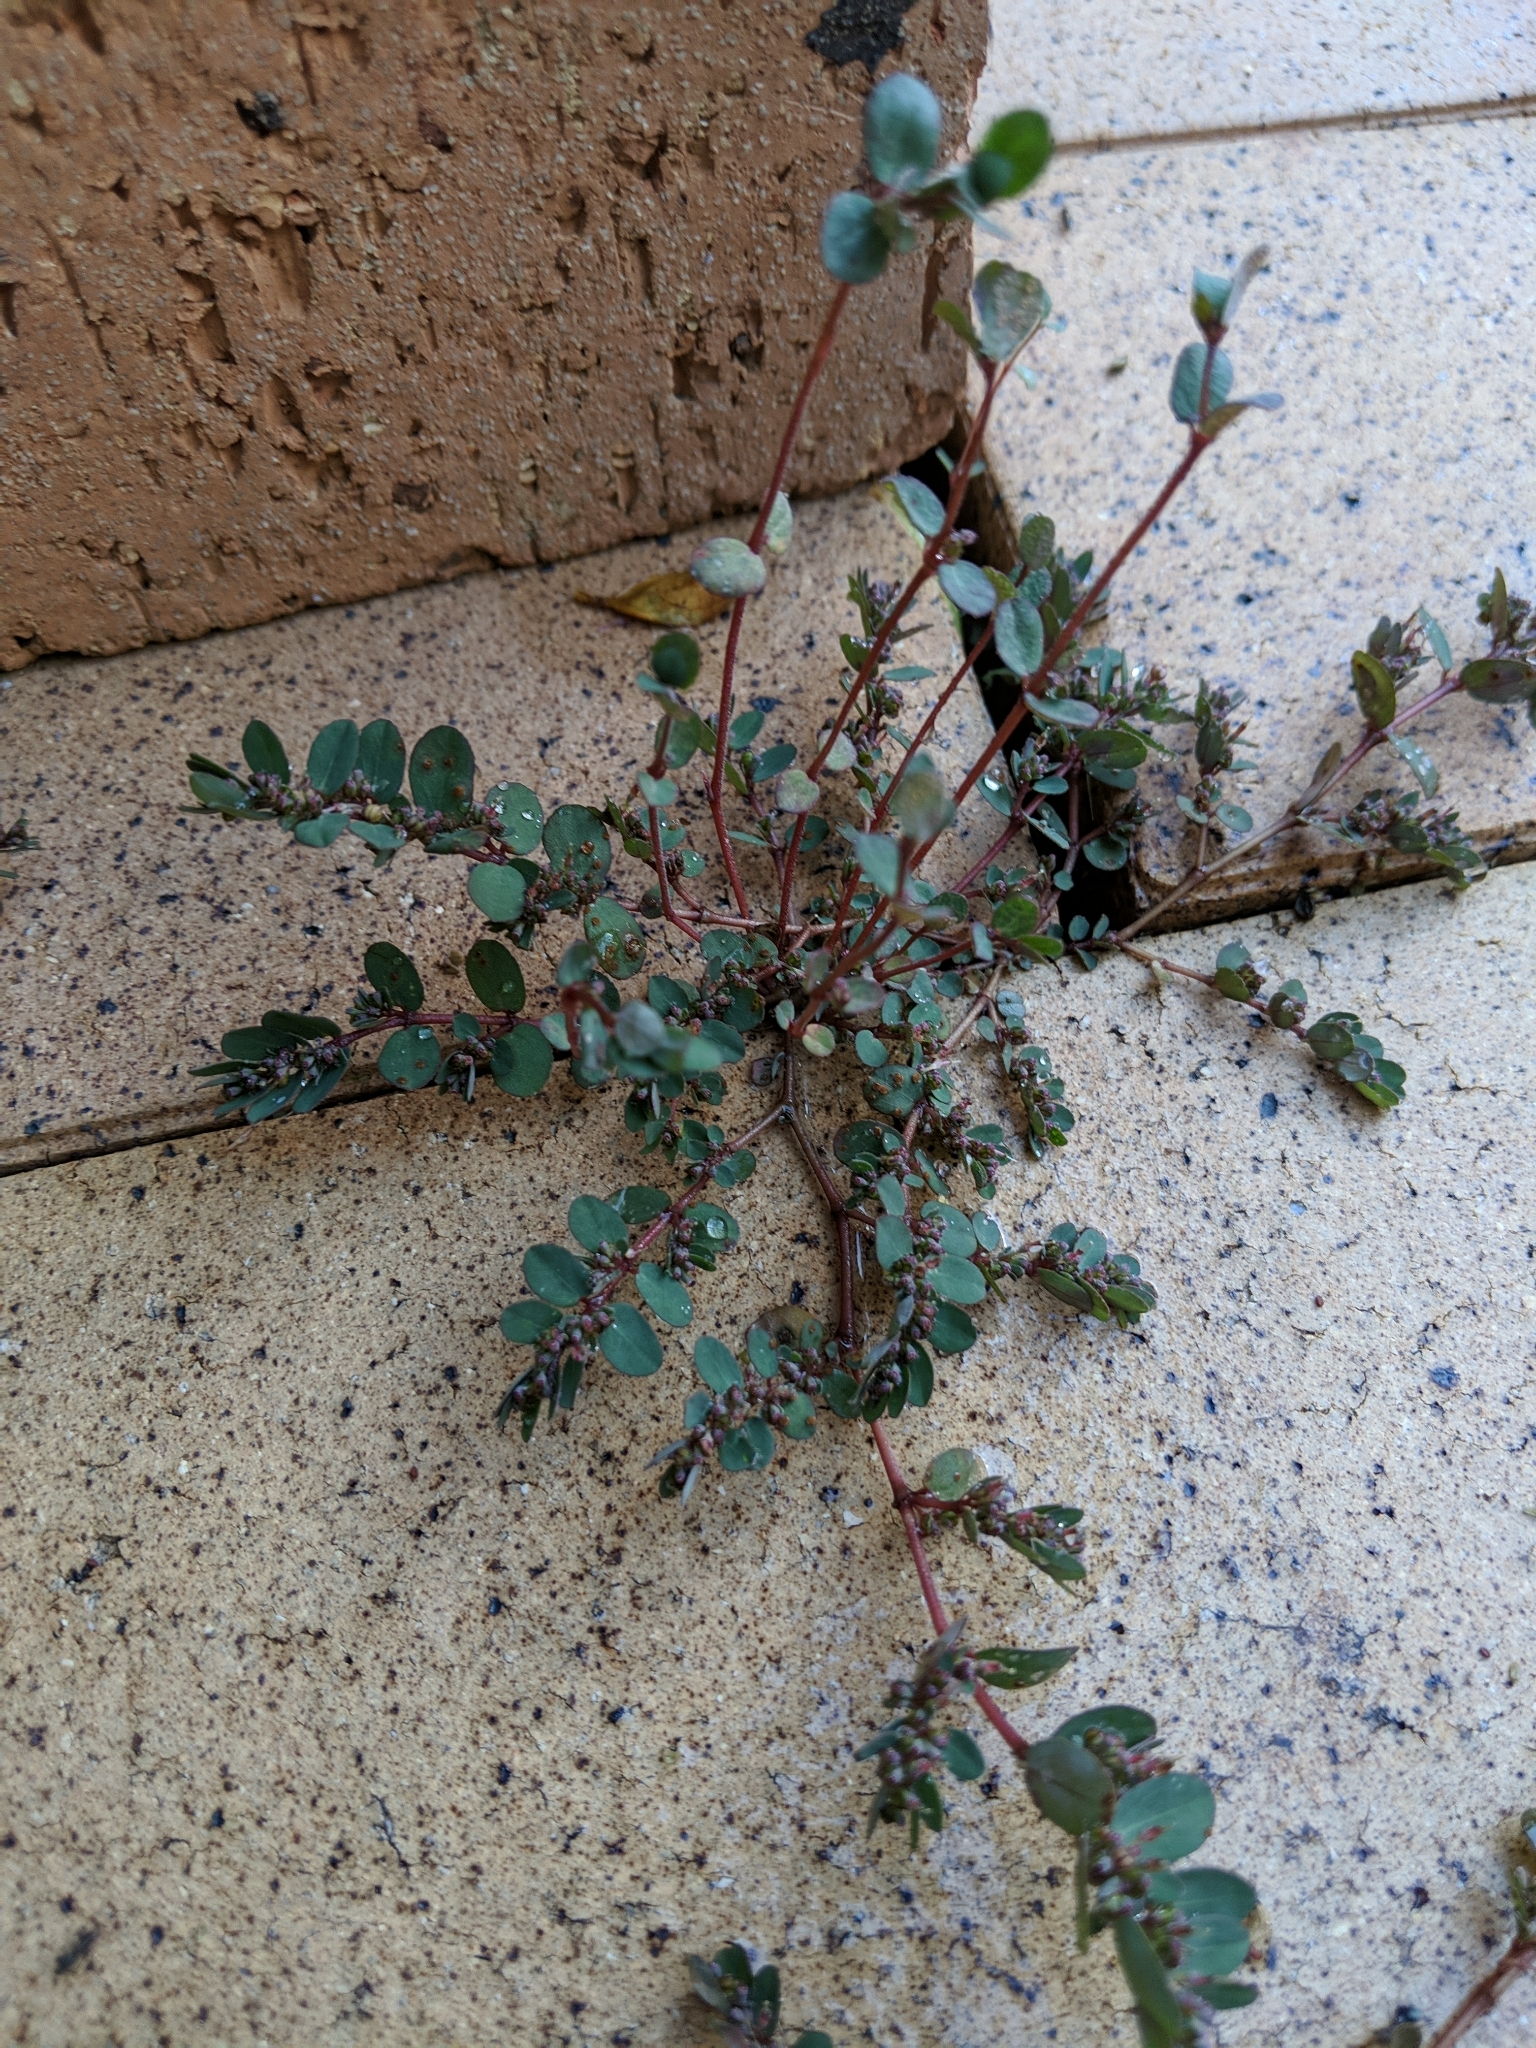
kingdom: Plantae
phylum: Tracheophyta
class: Magnoliopsida
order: Malpighiales
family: Euphorbiaceae
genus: Euphorbia
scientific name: Euphorbia prostrata
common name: Prostrate sandmat
